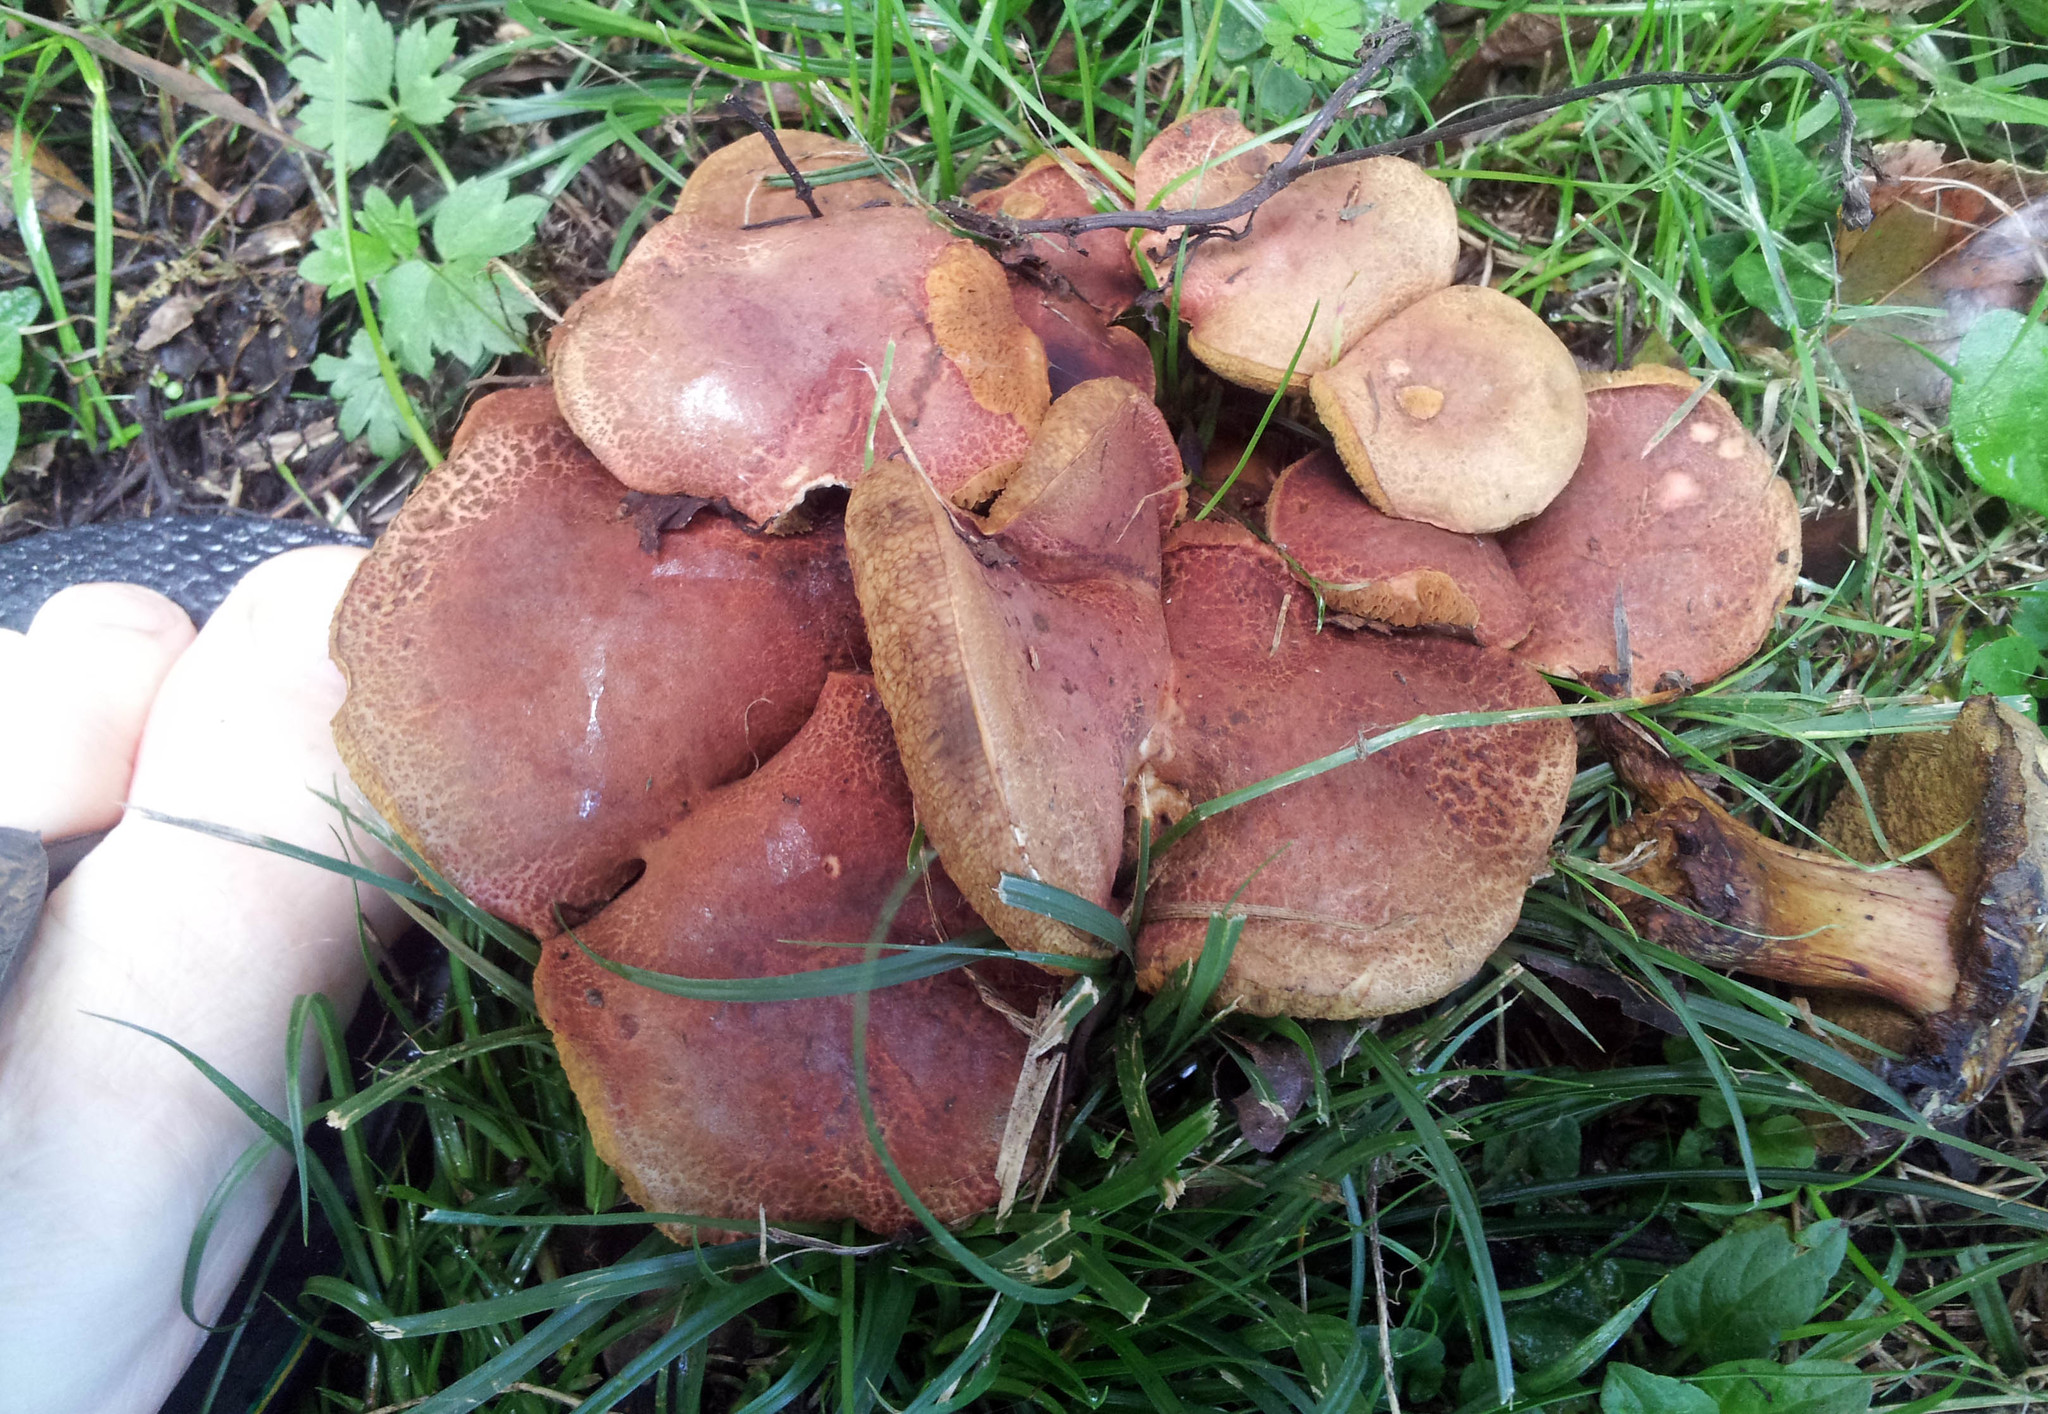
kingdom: Fungi
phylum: Basidiomycota
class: Agaricomycetes
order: Boletales
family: Boletaceae
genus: Xerocomellus
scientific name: Xerocomellus ripariellus
